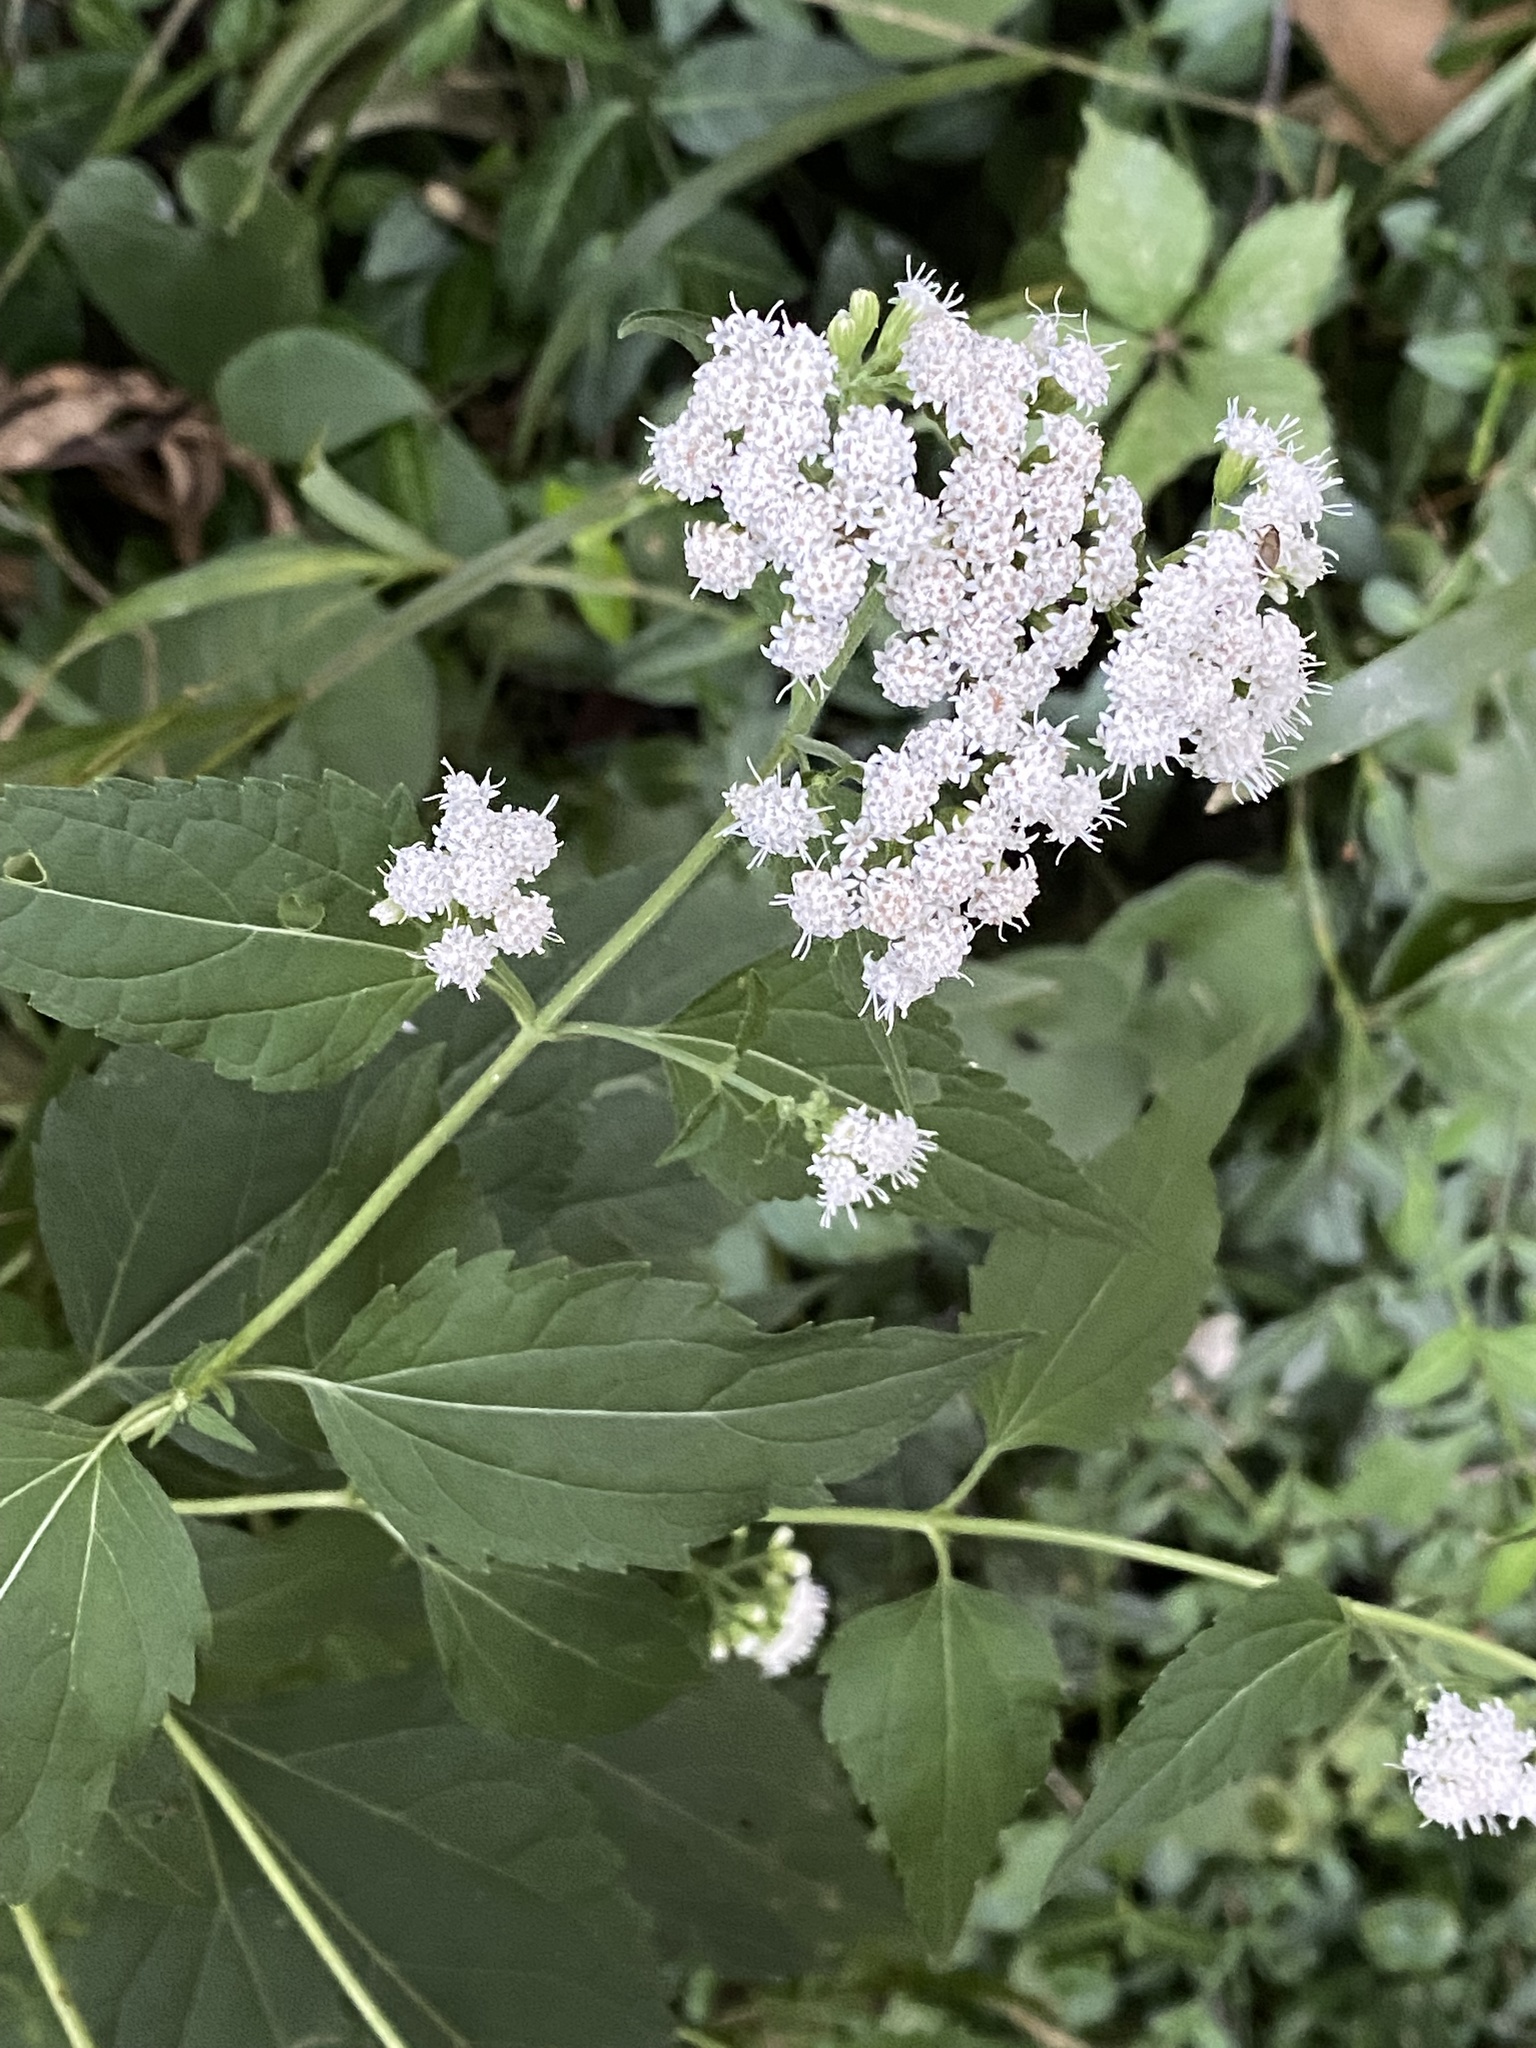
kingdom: Plantae
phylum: Tracheophyta
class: Magnoliopsida
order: Asterales
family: Asteraceae
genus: Ageratina
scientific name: Ageratina altissima
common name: White snakeroot
